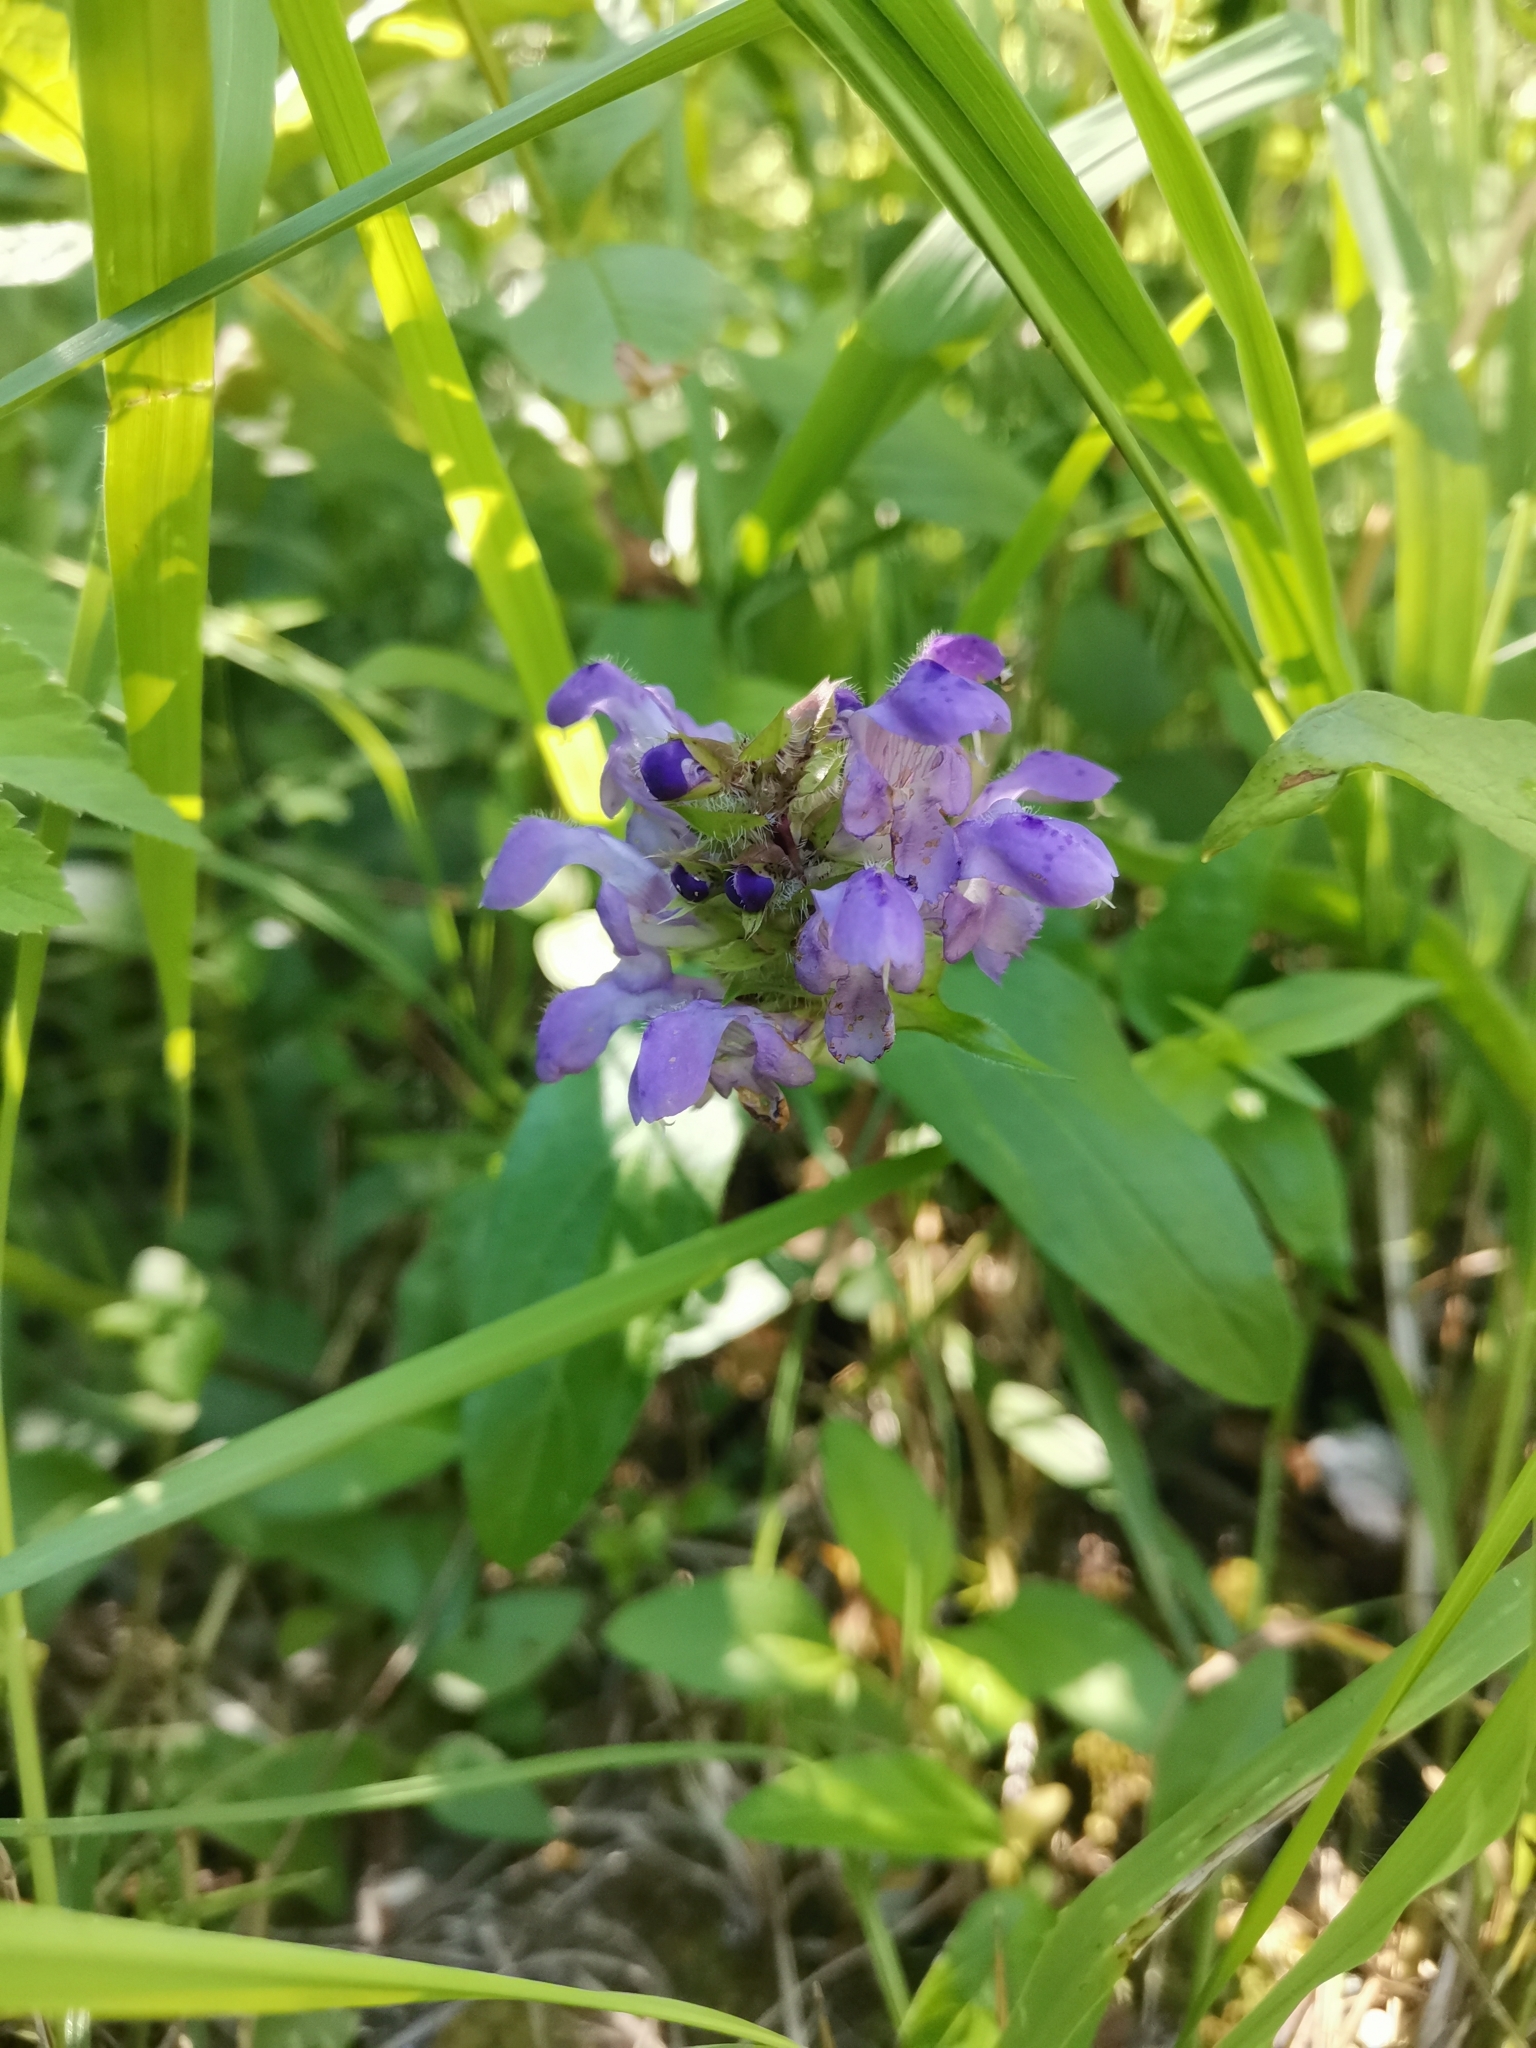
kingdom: Plantae
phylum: Tracheophyta
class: Magnoliopsida
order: Lamiales
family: Lamiaceae
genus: Prunella
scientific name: Prunella grandiflora
